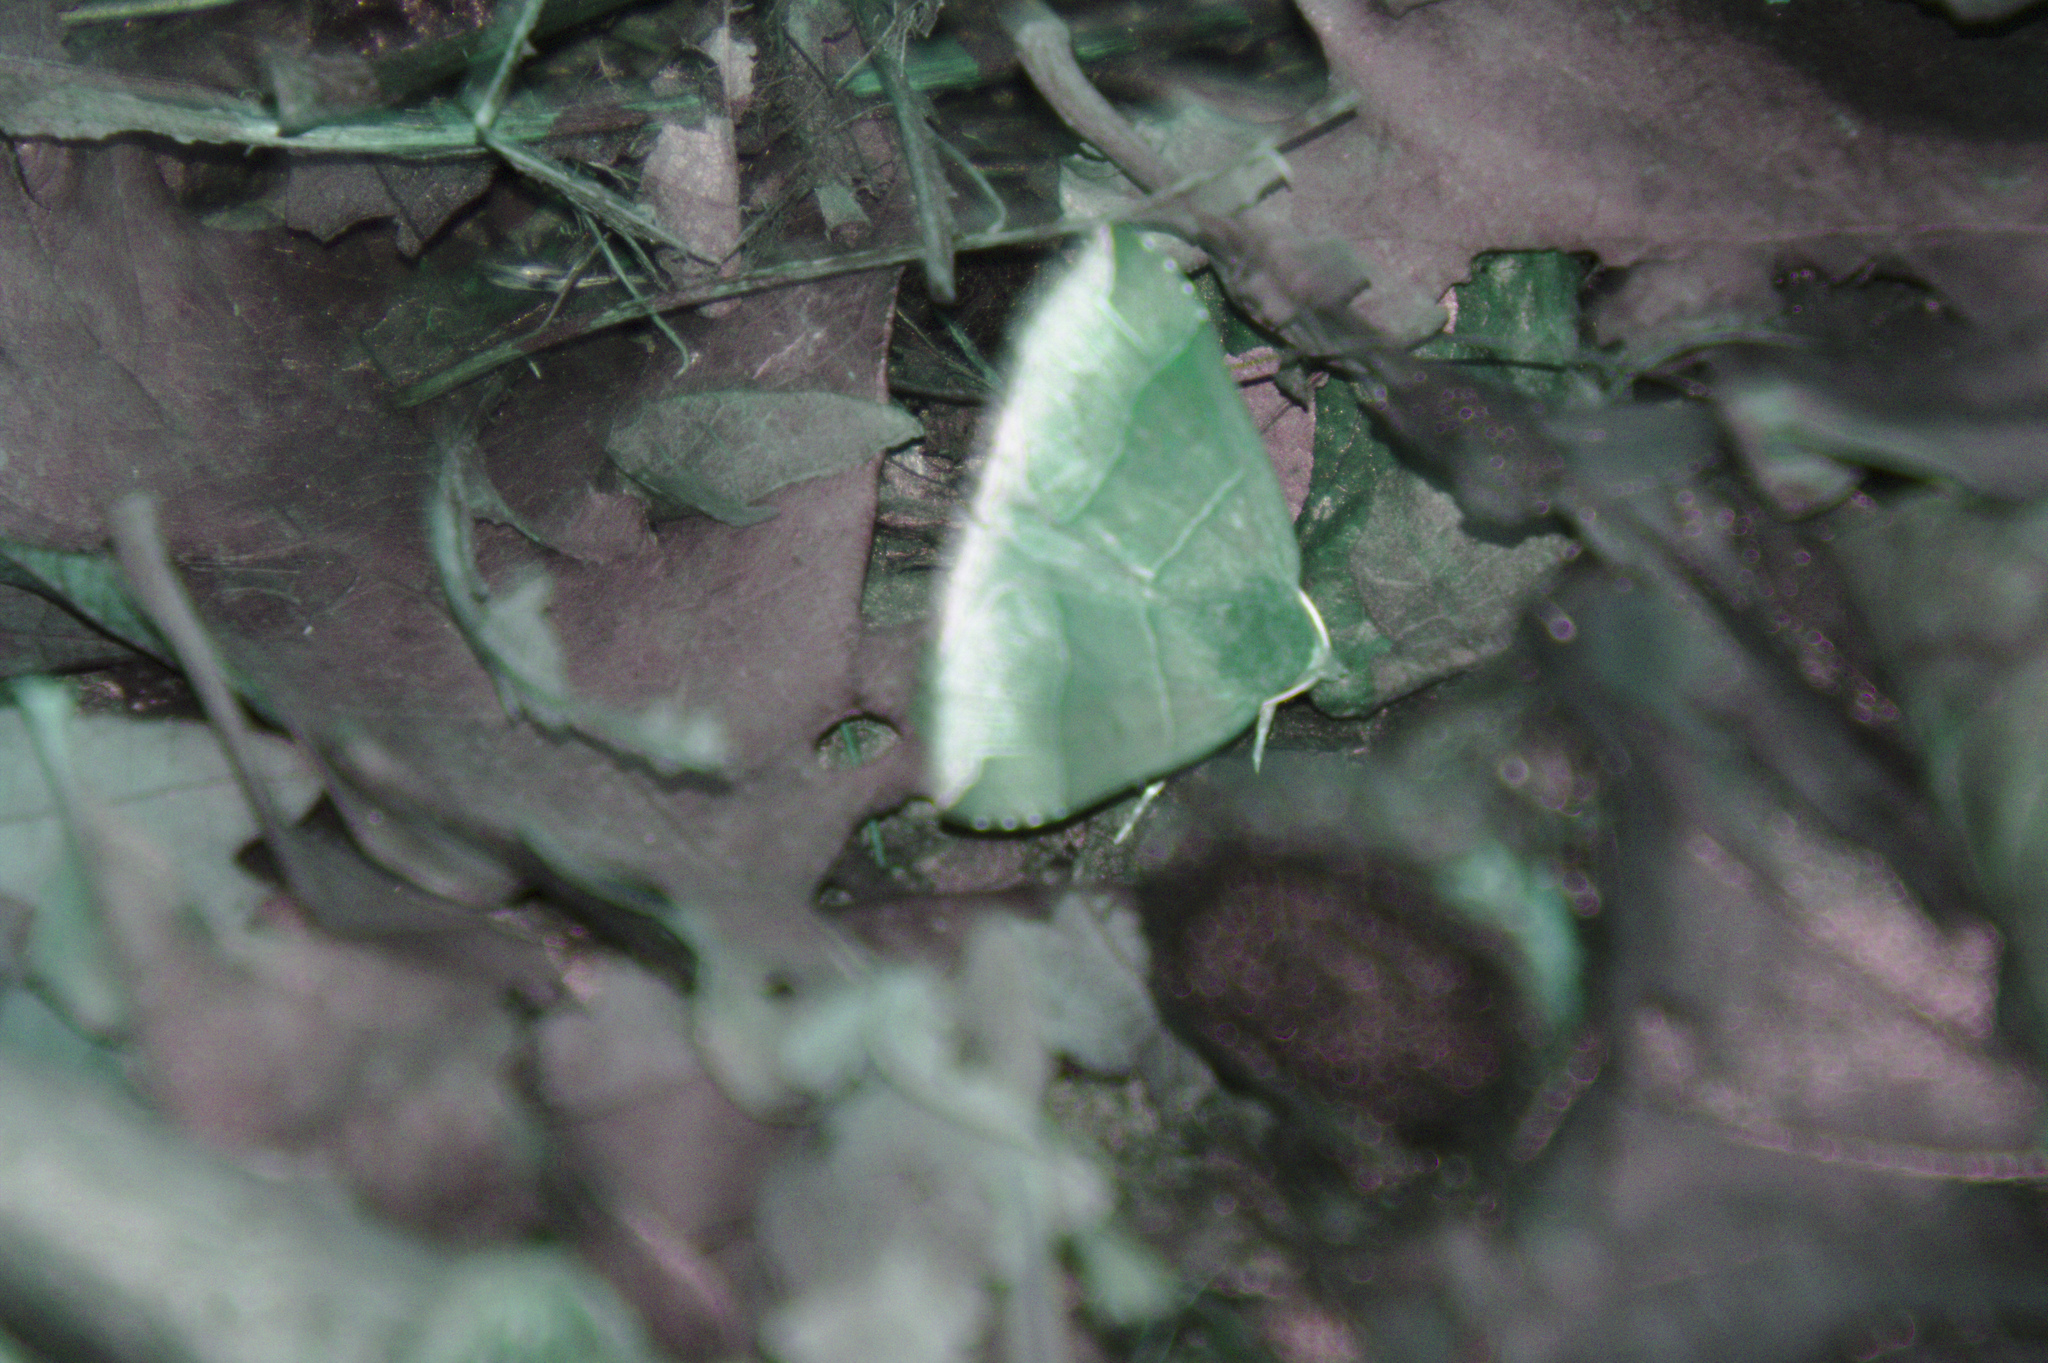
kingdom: Animalia
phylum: Arthropoda
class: Insecta
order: Lepidoptera
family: Erebidae
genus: Parallelia
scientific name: Parallelia bistriaris
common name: Maple looper moth
